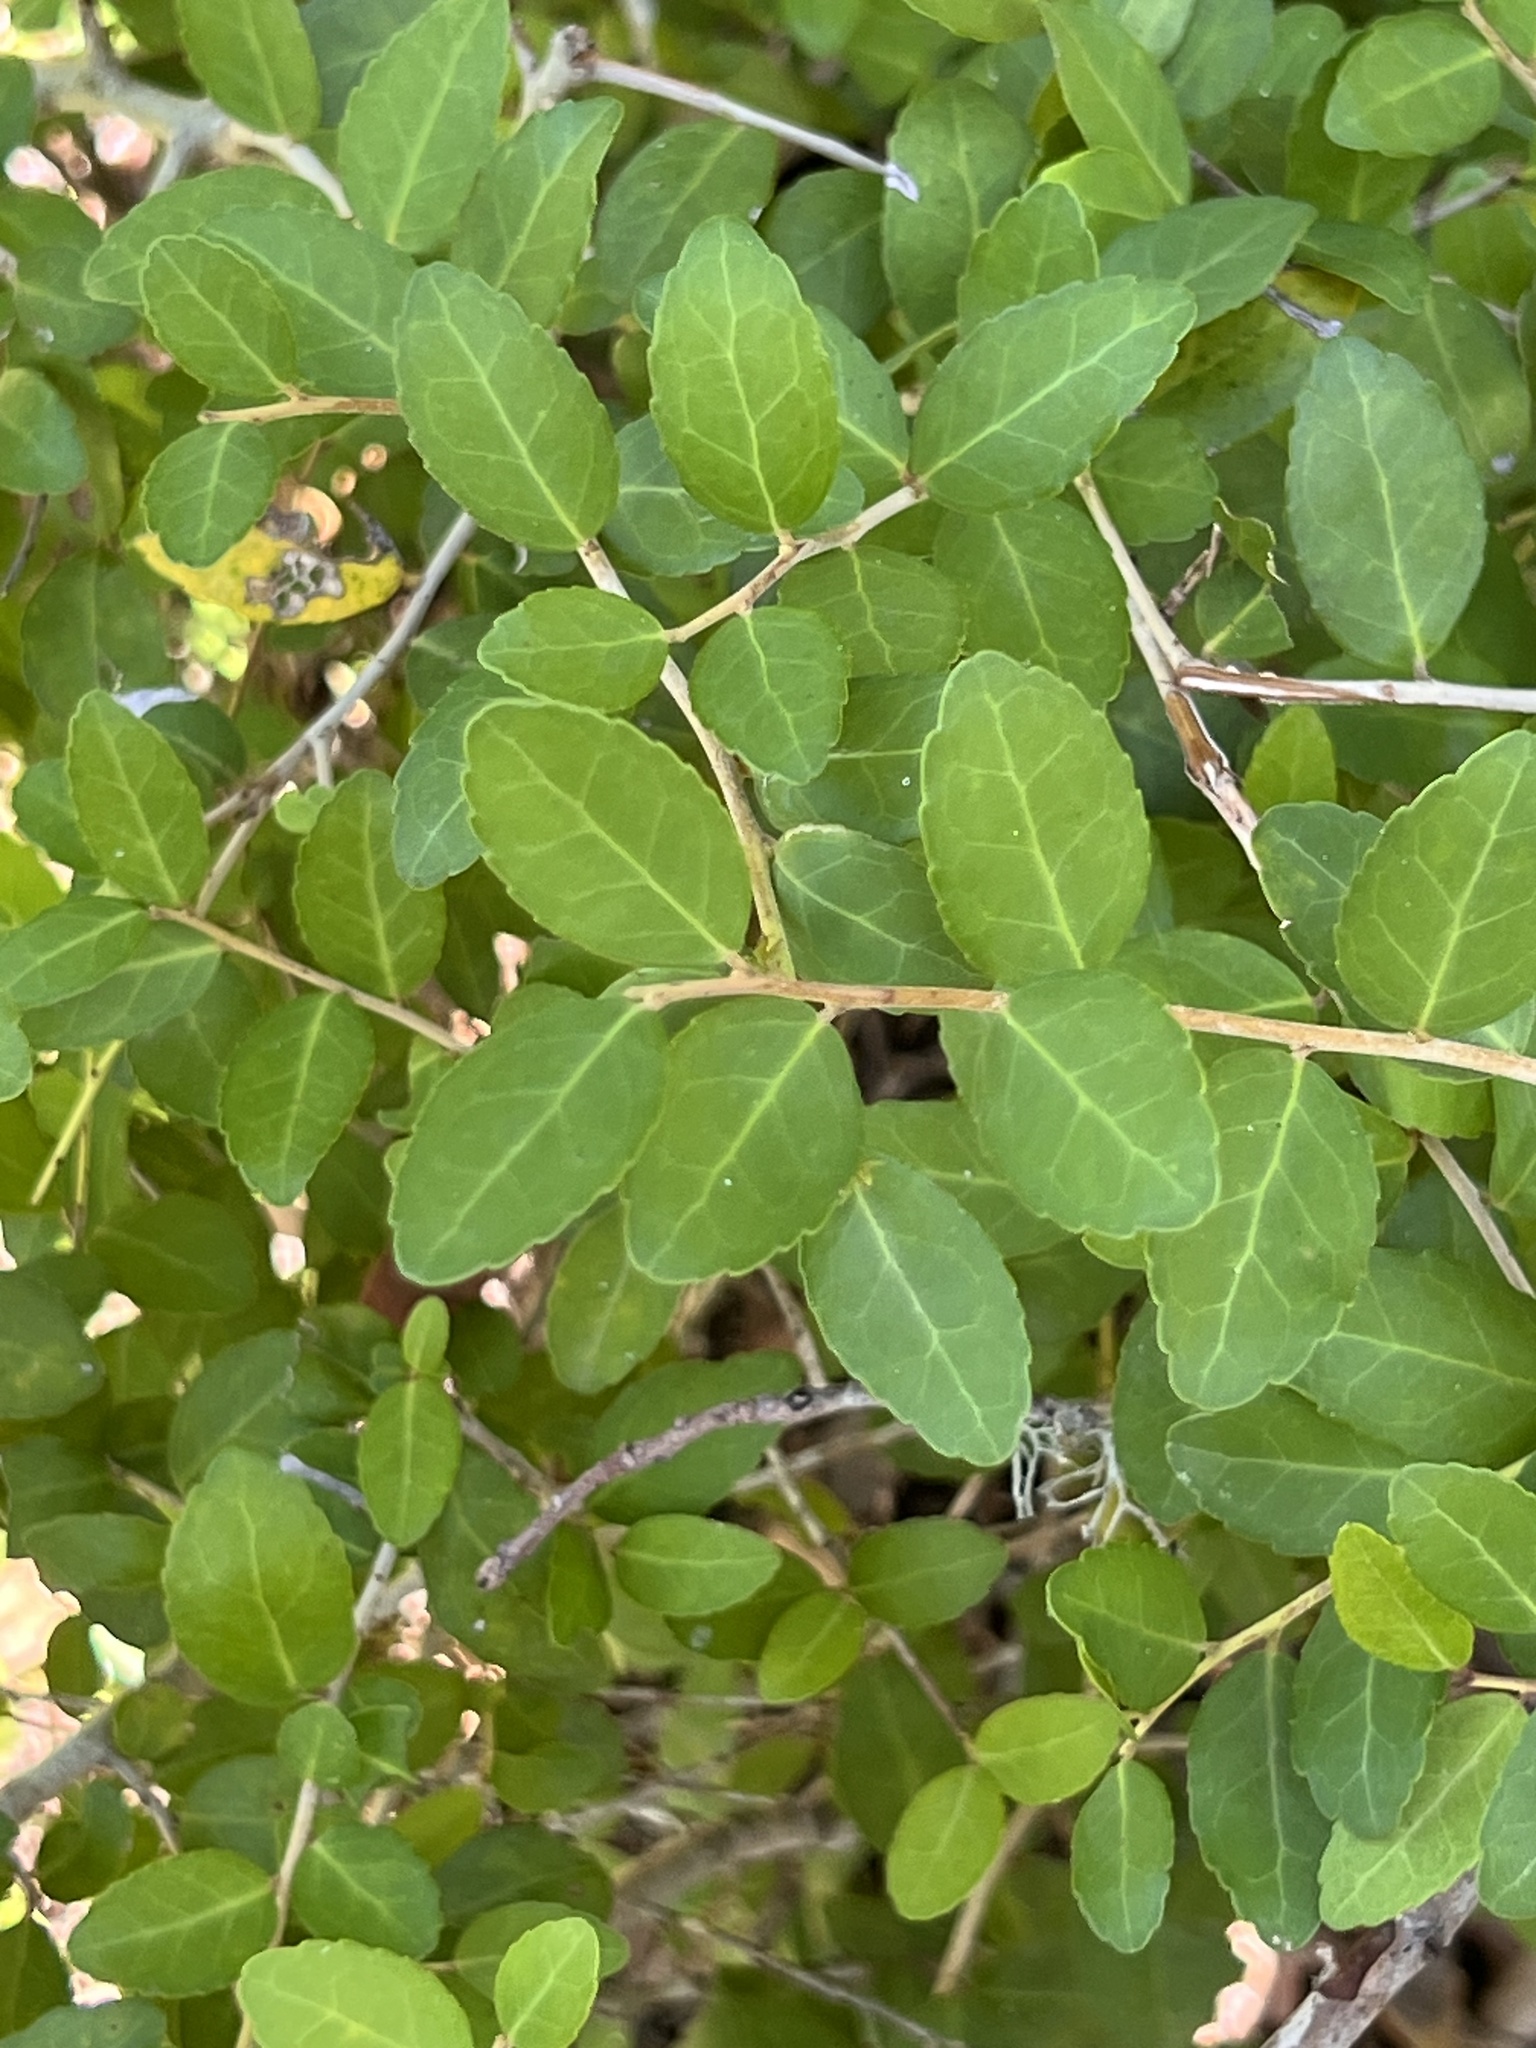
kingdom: Plantae
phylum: Tracheophyta
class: Magnoliopsida
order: Aquifoliales
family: Aquifoliaceae
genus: Ilex
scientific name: Ilex vomitoria
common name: Yaupon holly
